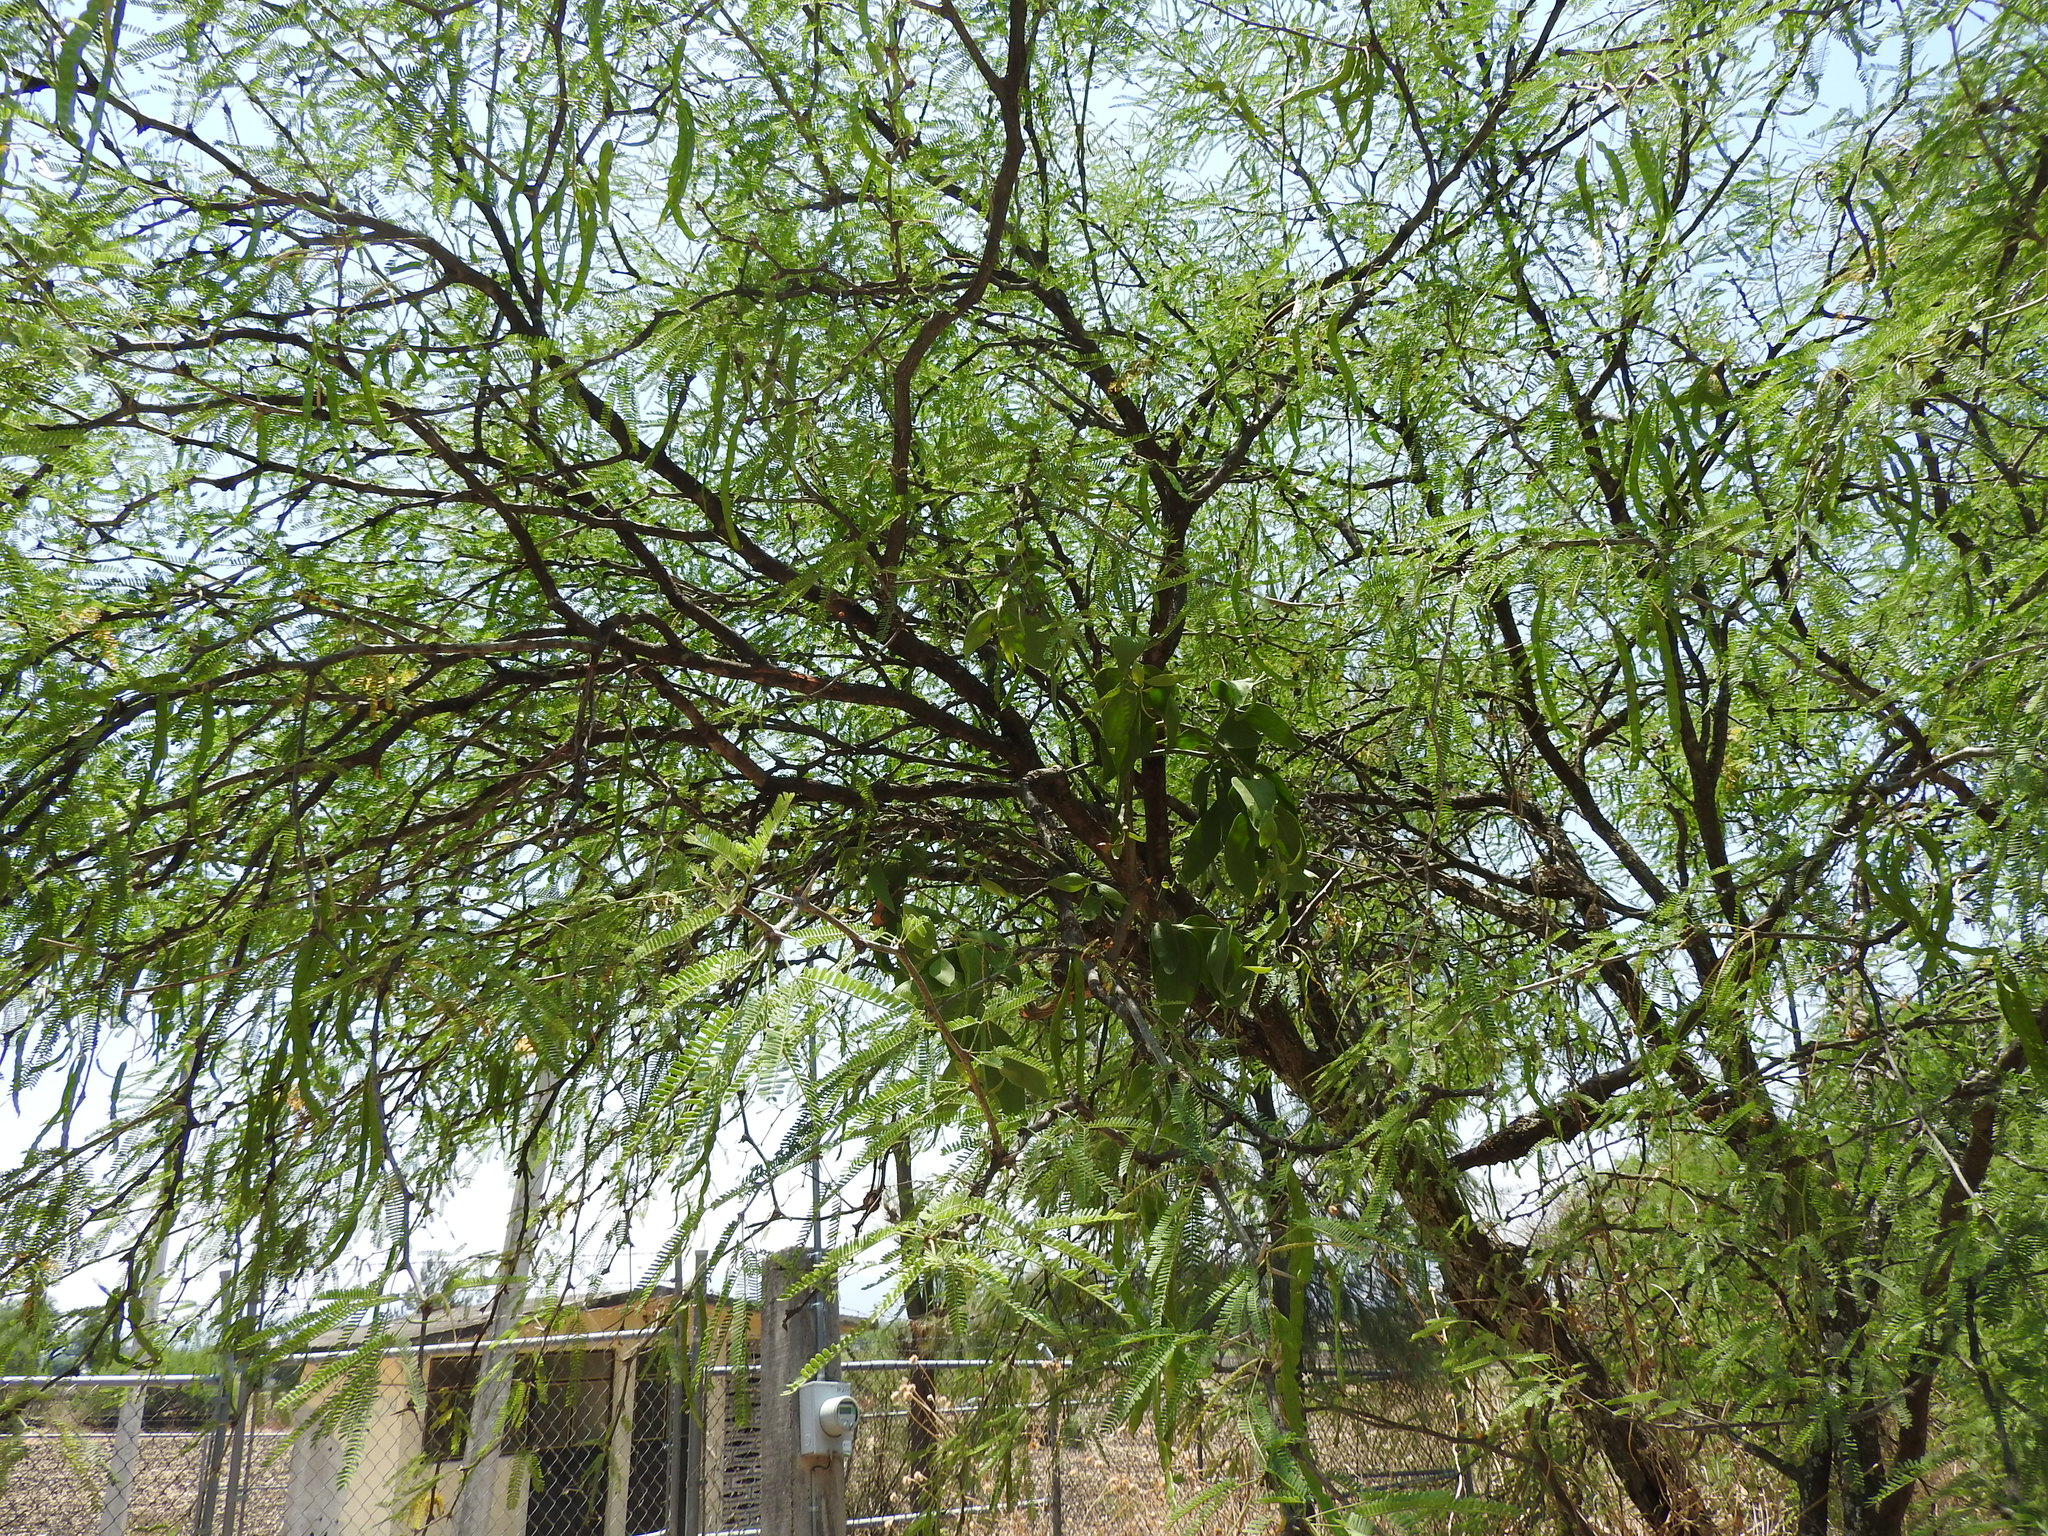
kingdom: Plantae
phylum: Tracheophyta
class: Magnoliopsida
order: Santalales
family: Loranthaceae
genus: Psittacanthus
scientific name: Psittacanthus calyculatus
